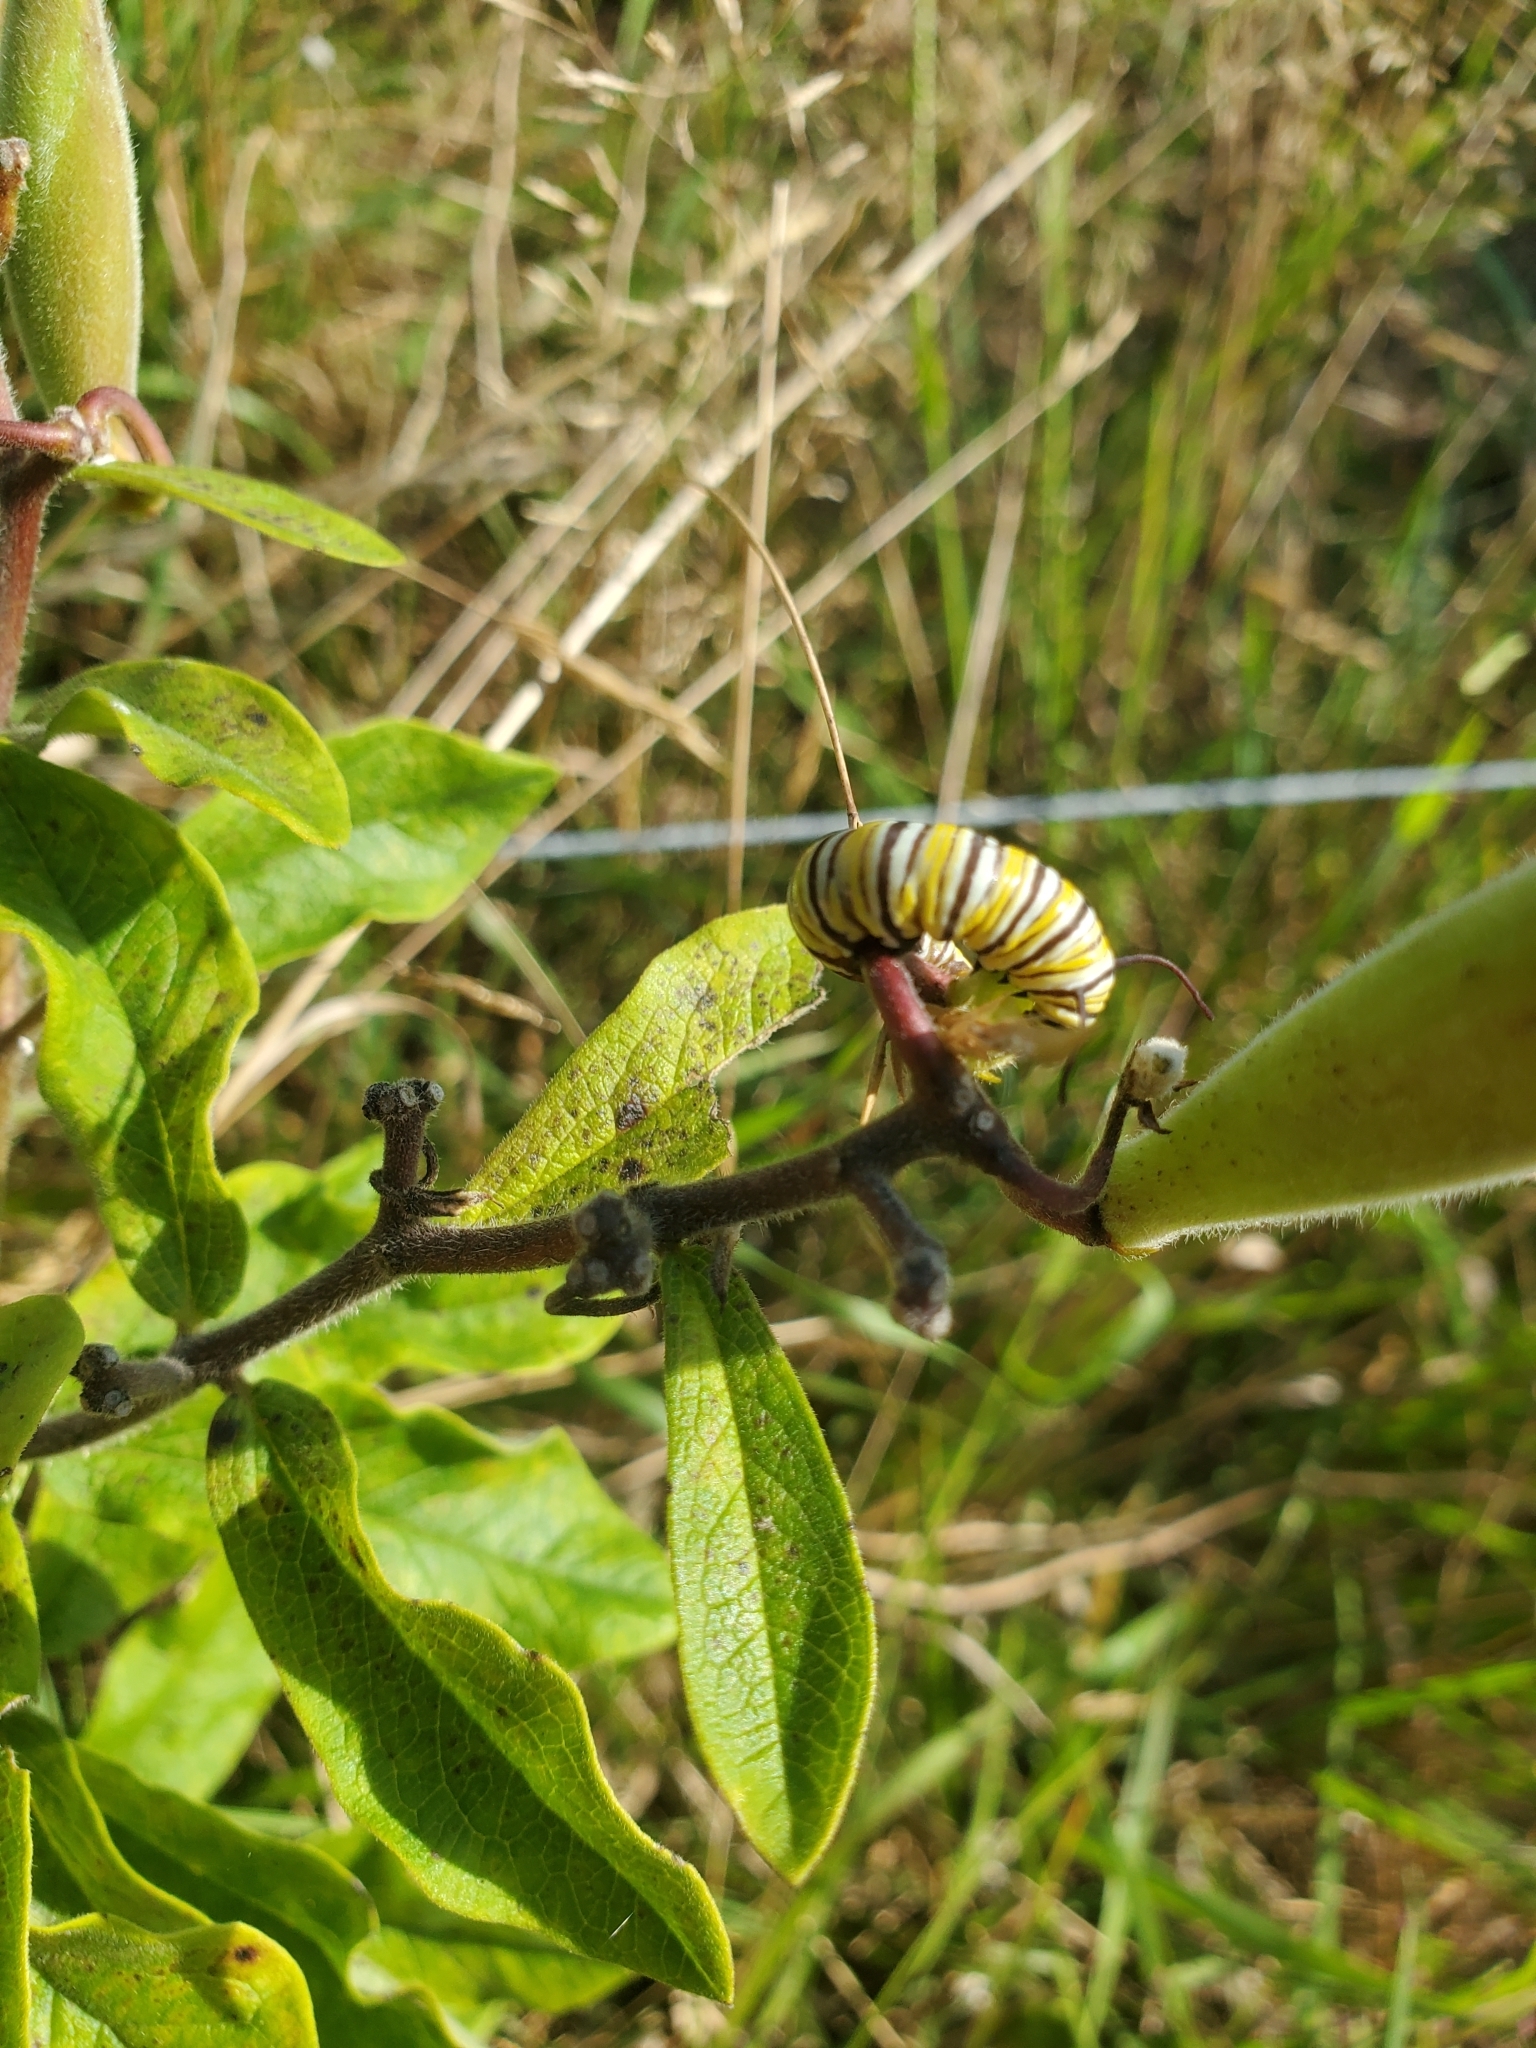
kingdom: Animalia
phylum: Arthropoda
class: Insecta
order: Lepidoptera
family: Nymphalidae
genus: Danaus
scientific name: Danaus plexippus
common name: Monarch
